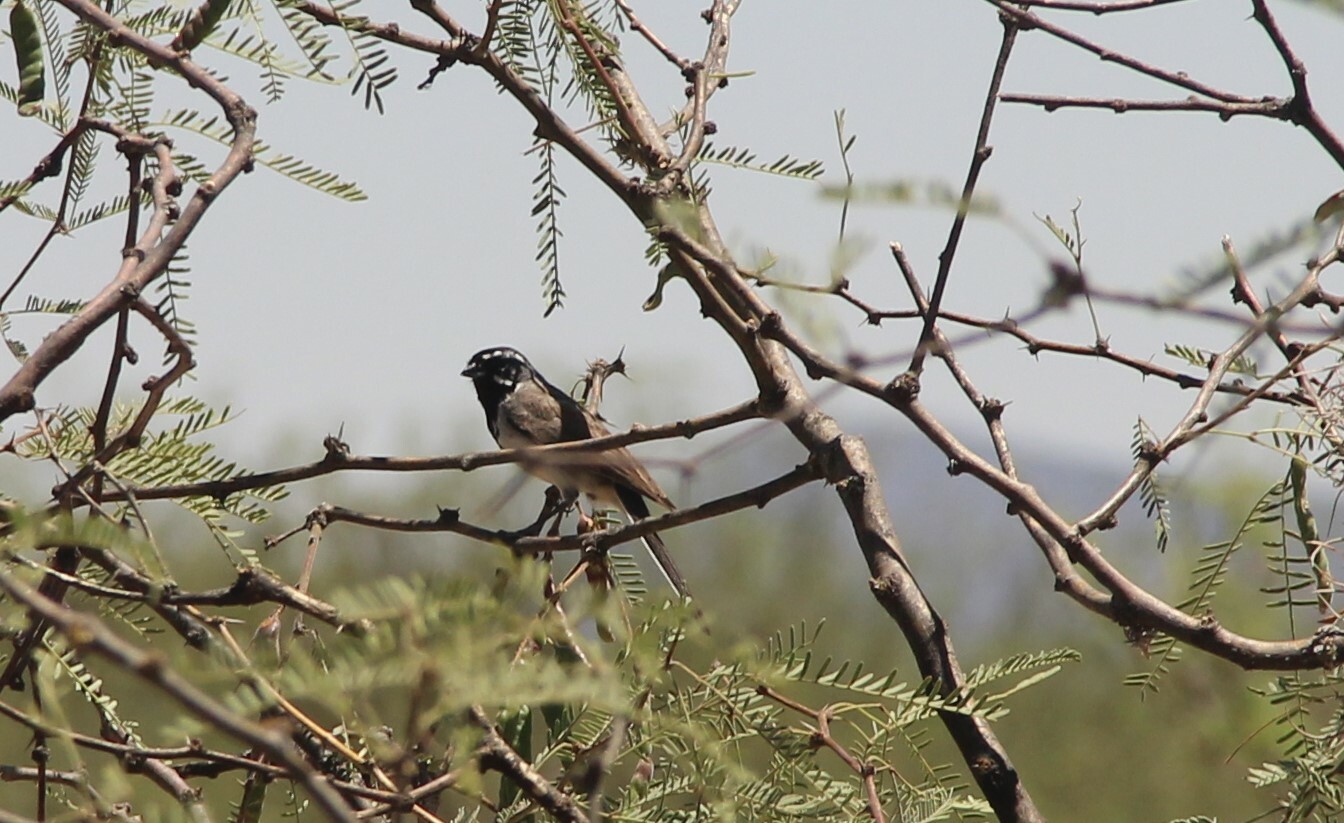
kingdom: Animalia
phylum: Chordata
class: Aves
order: Passeriformes
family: Passerellidae
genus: Amphispiza
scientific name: Amphispiza bilineata
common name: Black-throated sparrow
